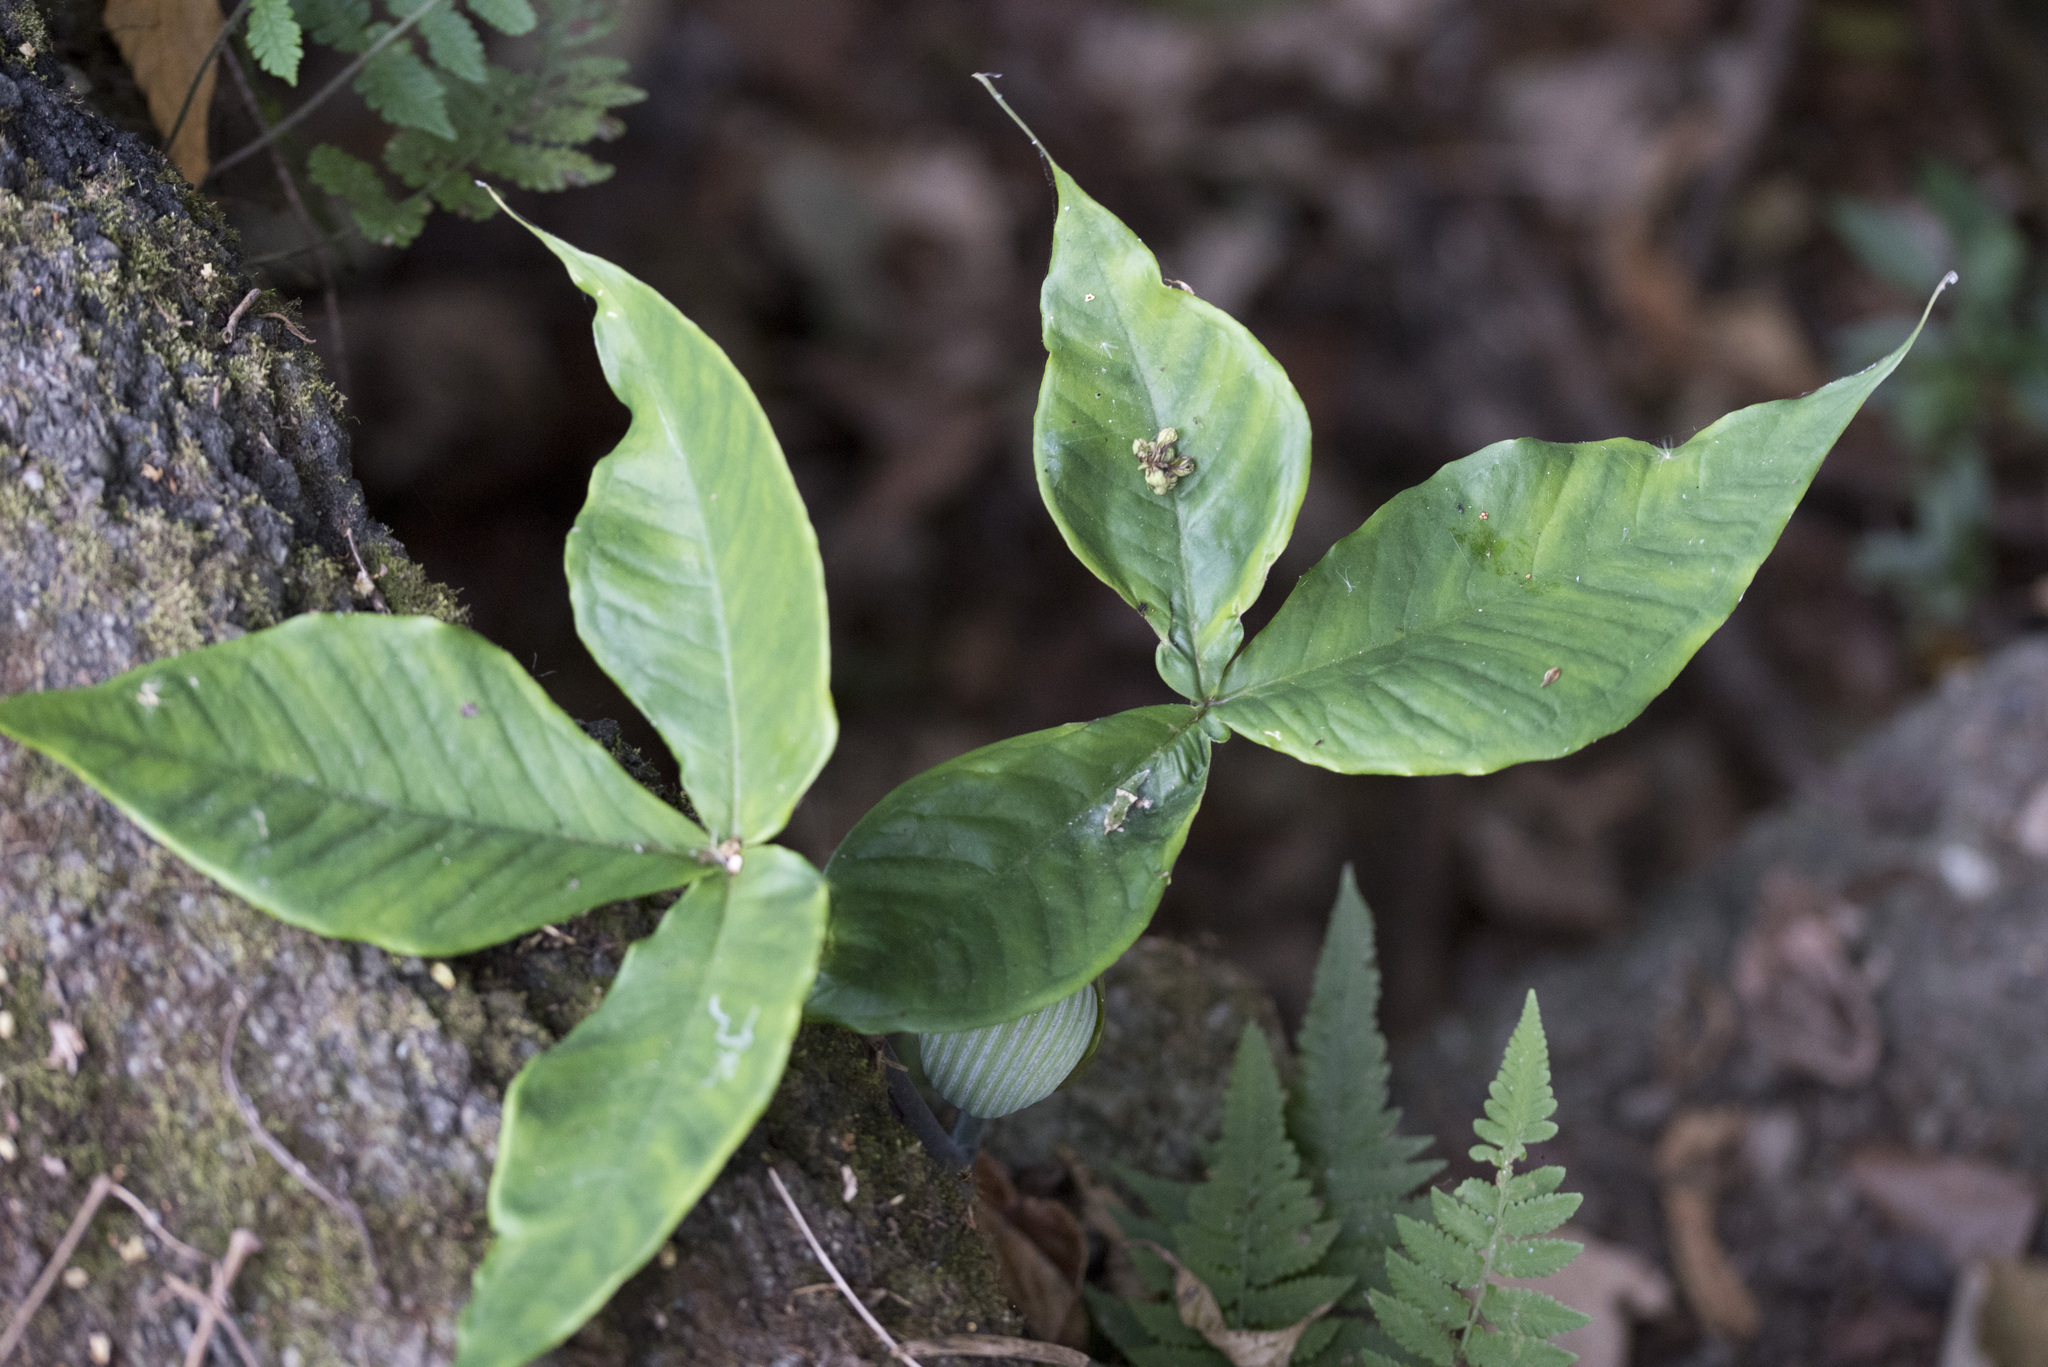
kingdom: Plantae
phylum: Tracheophyta
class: Liliopsida
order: Alismatales
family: Araceae
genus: Arisaema
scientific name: Arisaema ringens
